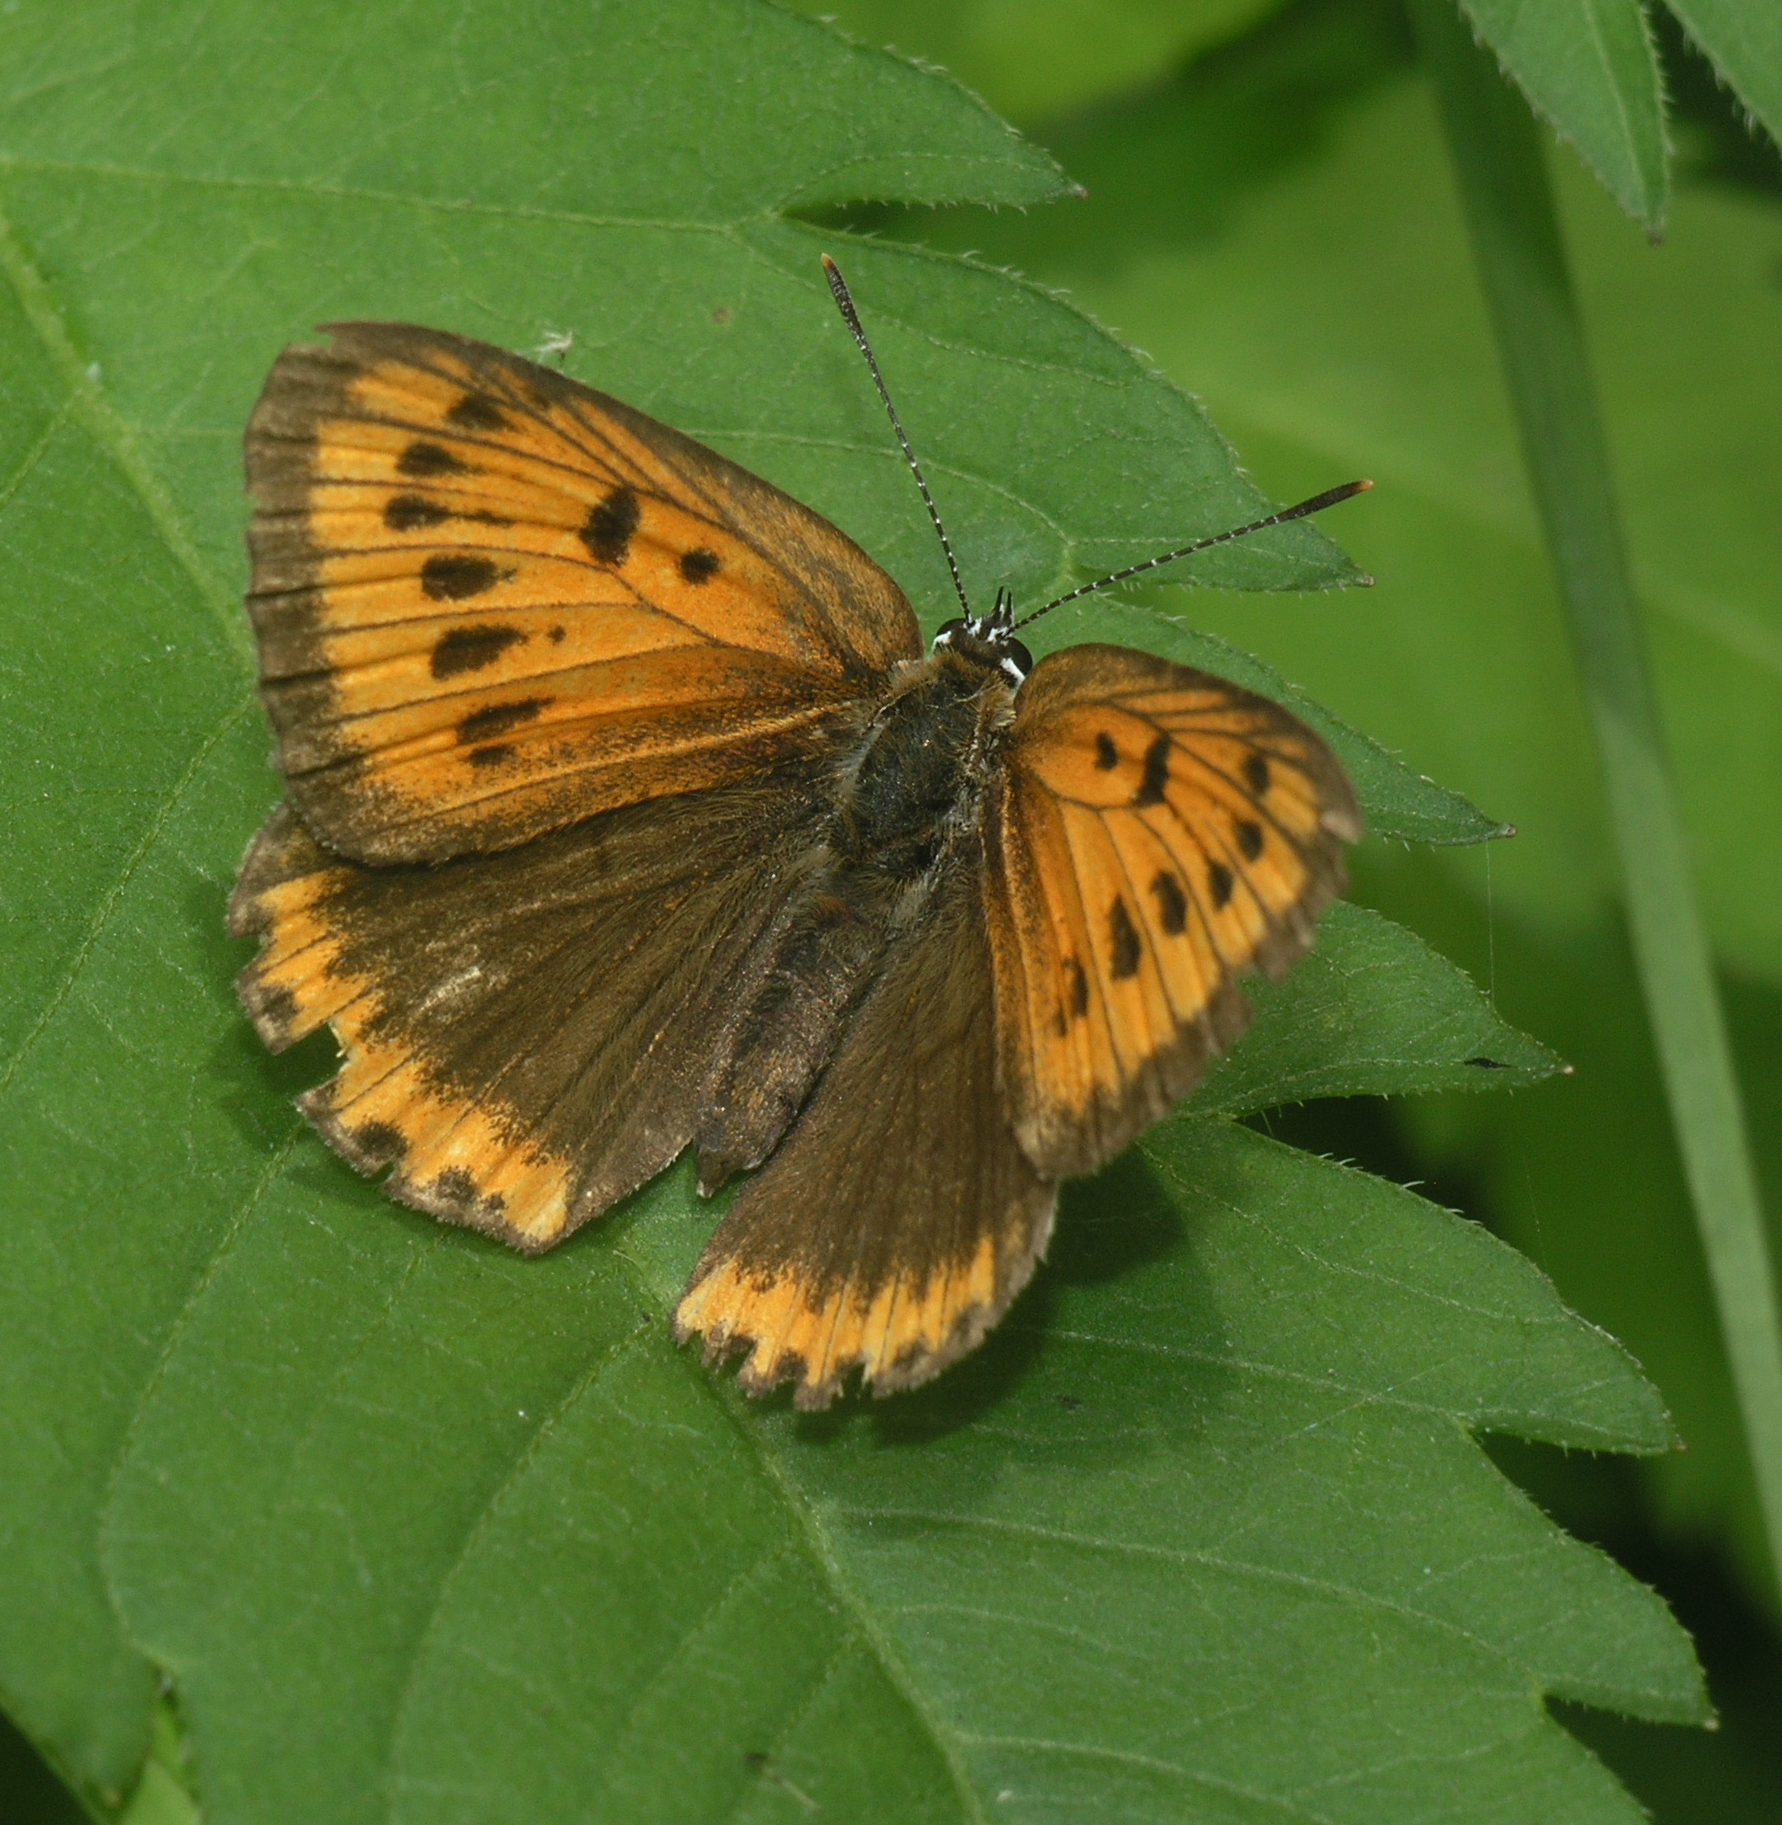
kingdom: Animalia
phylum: Arthropoda
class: Insecta
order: Lepidoptera
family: Lycaenidae
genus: Lycaena
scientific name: Lycaena dispar
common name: Large copper
